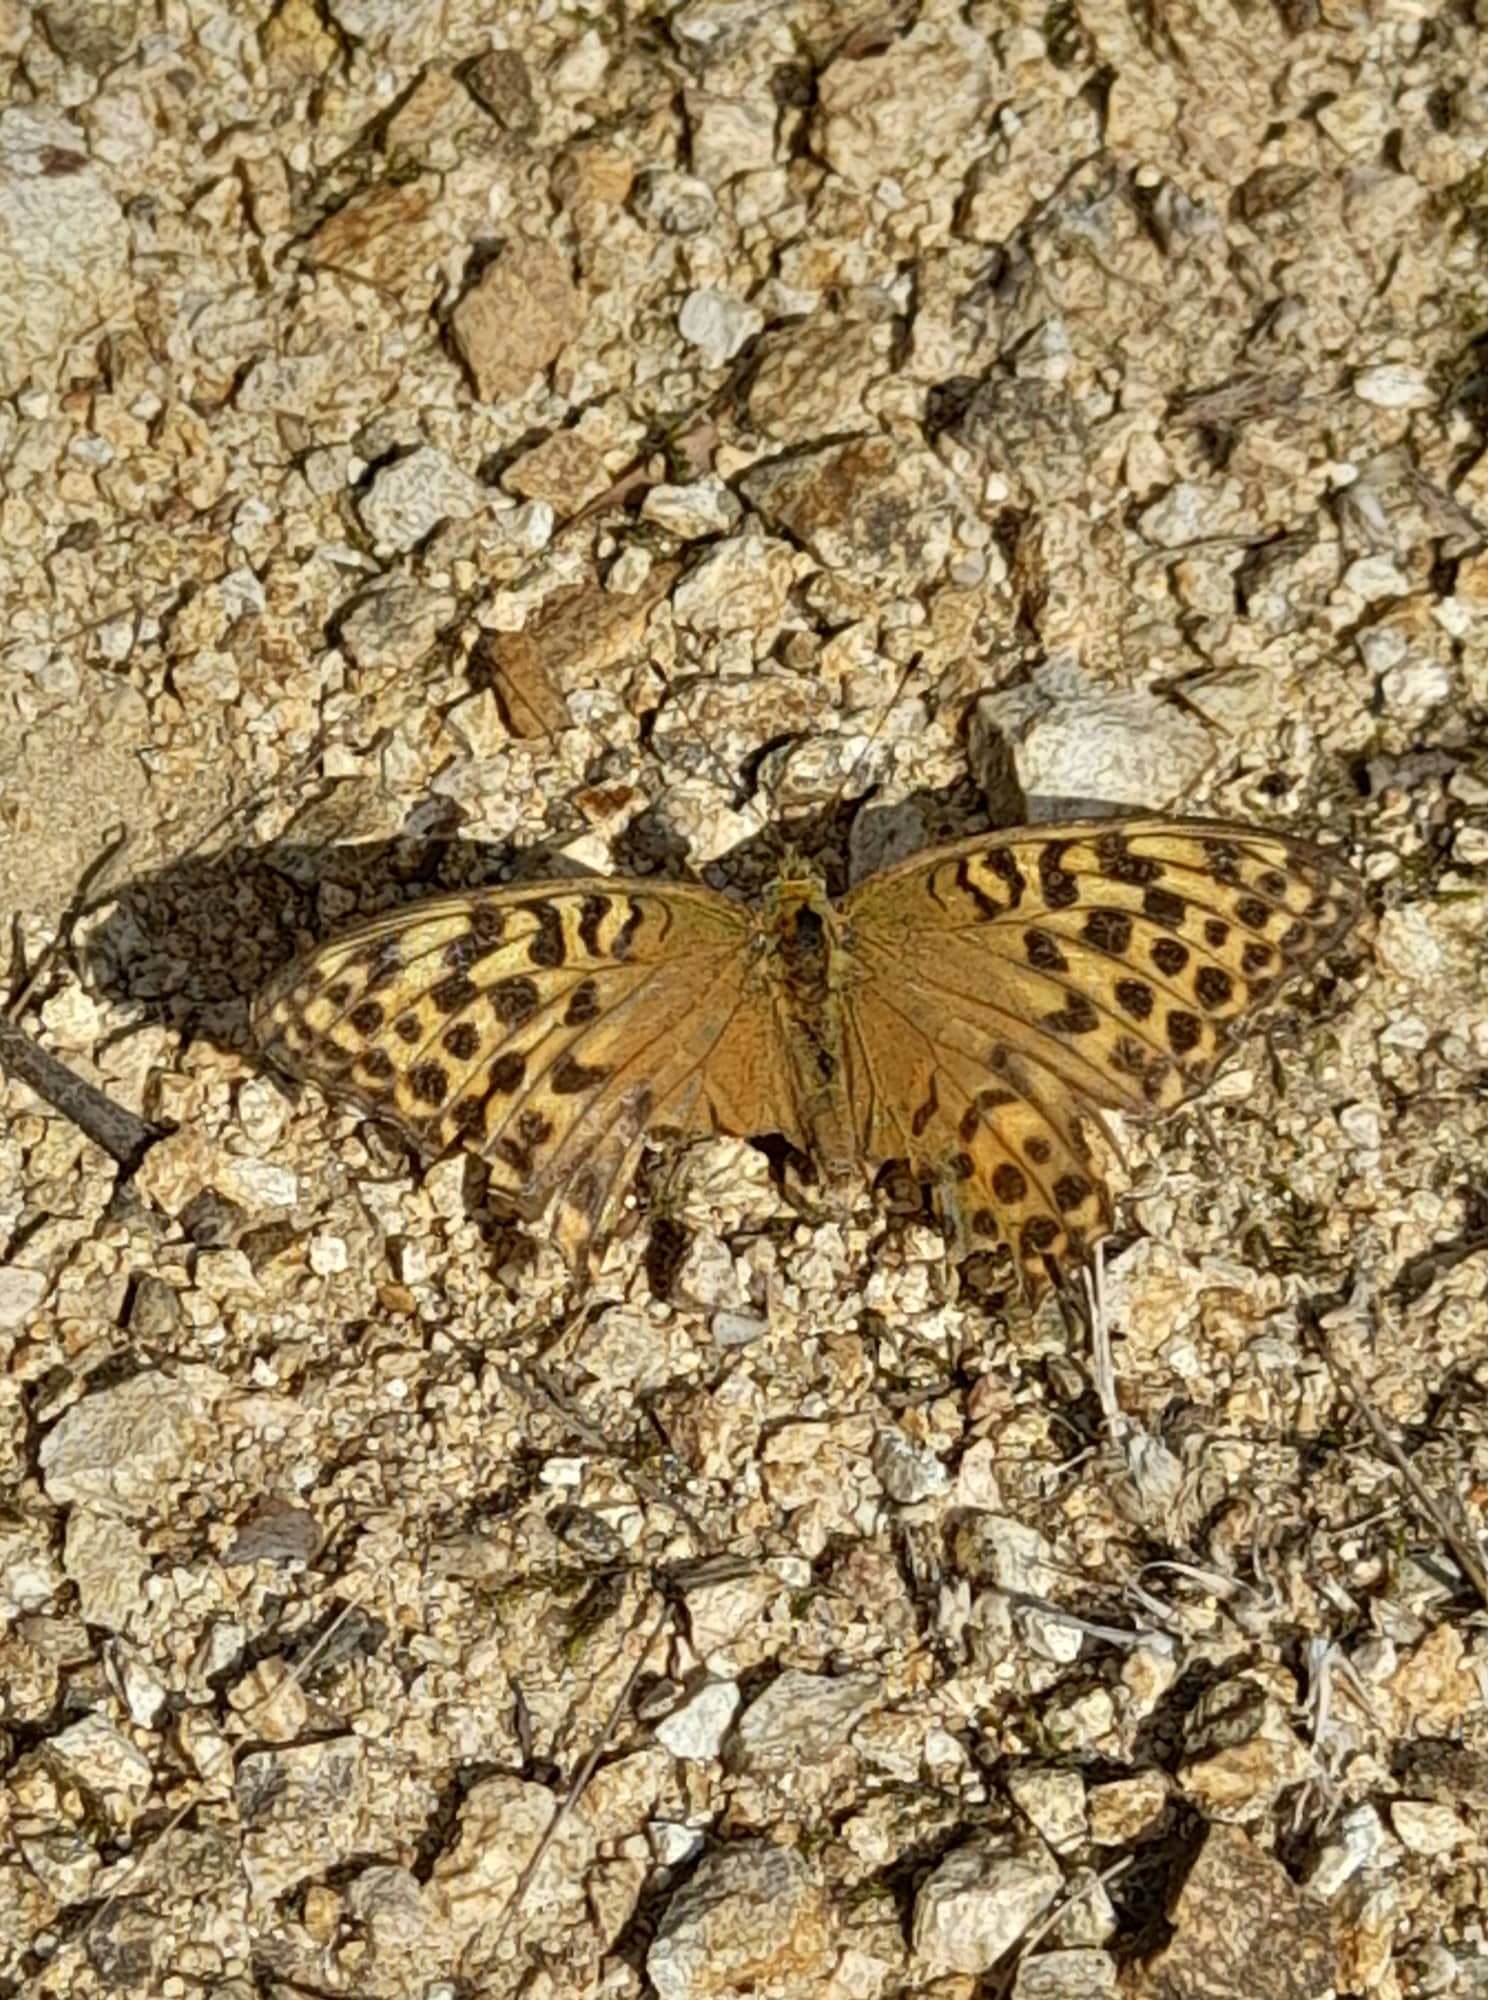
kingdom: Animalia
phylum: Arthropoda
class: Insecta
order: Lepidoptera
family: Nymphalidae
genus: Argynnis
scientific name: Argynnis paphia
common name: Silver-washed fritillary
